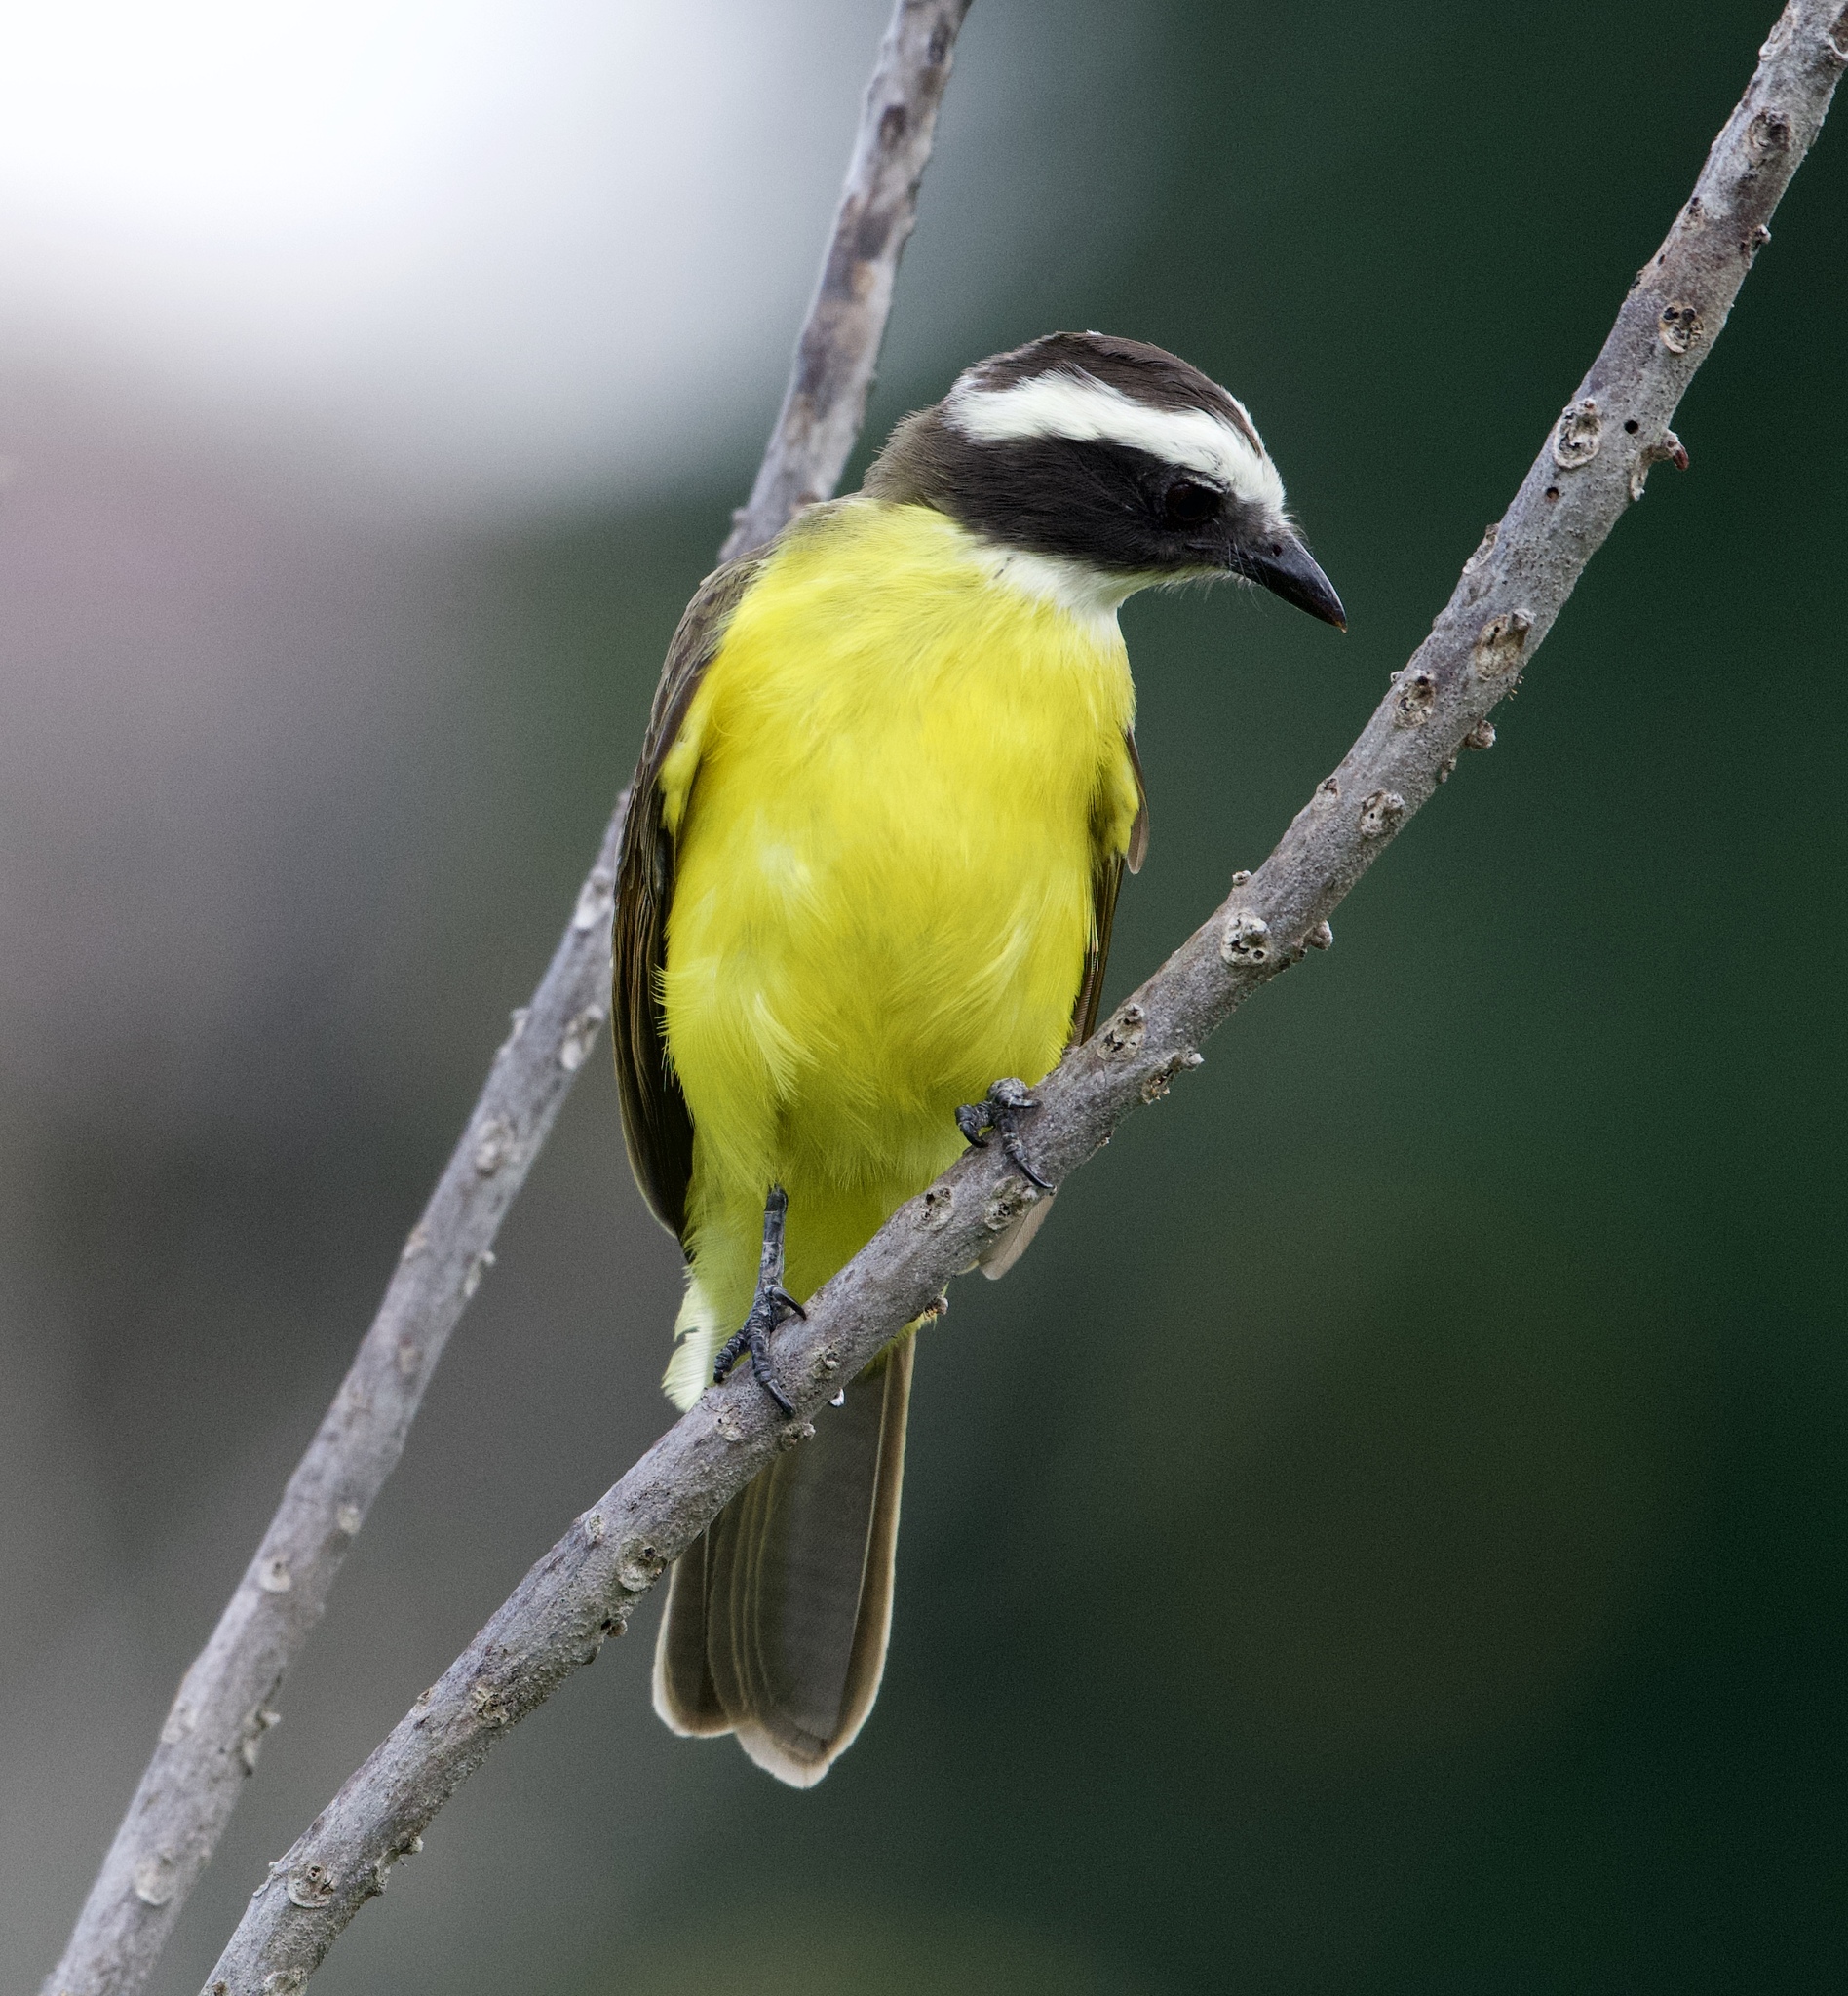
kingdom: Animalia
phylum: Chordata
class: Aves
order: Passeriformes
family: Tyrannidae
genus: Myiozetetes
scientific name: Myiozetetes similis
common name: Social flycatcher
